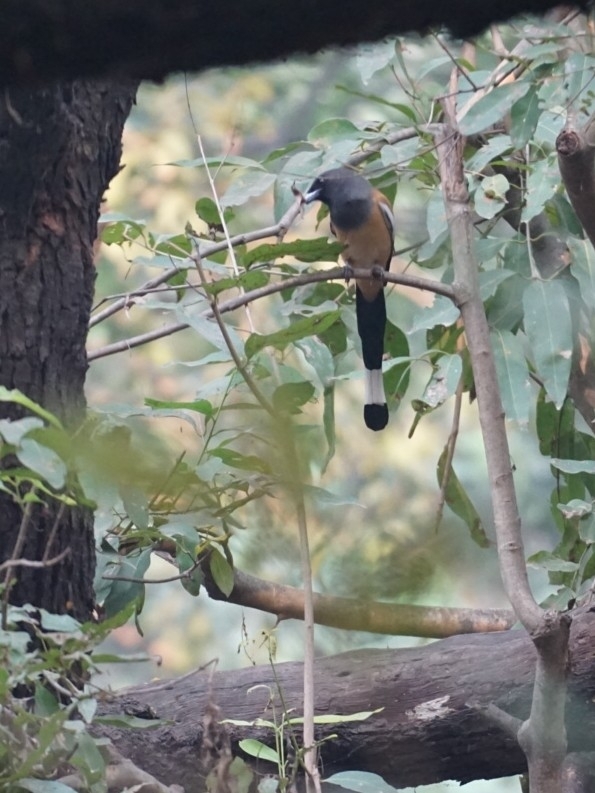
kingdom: Animalia
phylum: Chordata
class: Aves
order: Passeriformes
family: Corvidae
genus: Dendrocitta
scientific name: Dendrocitta vagabunda
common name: Rufous treepie
